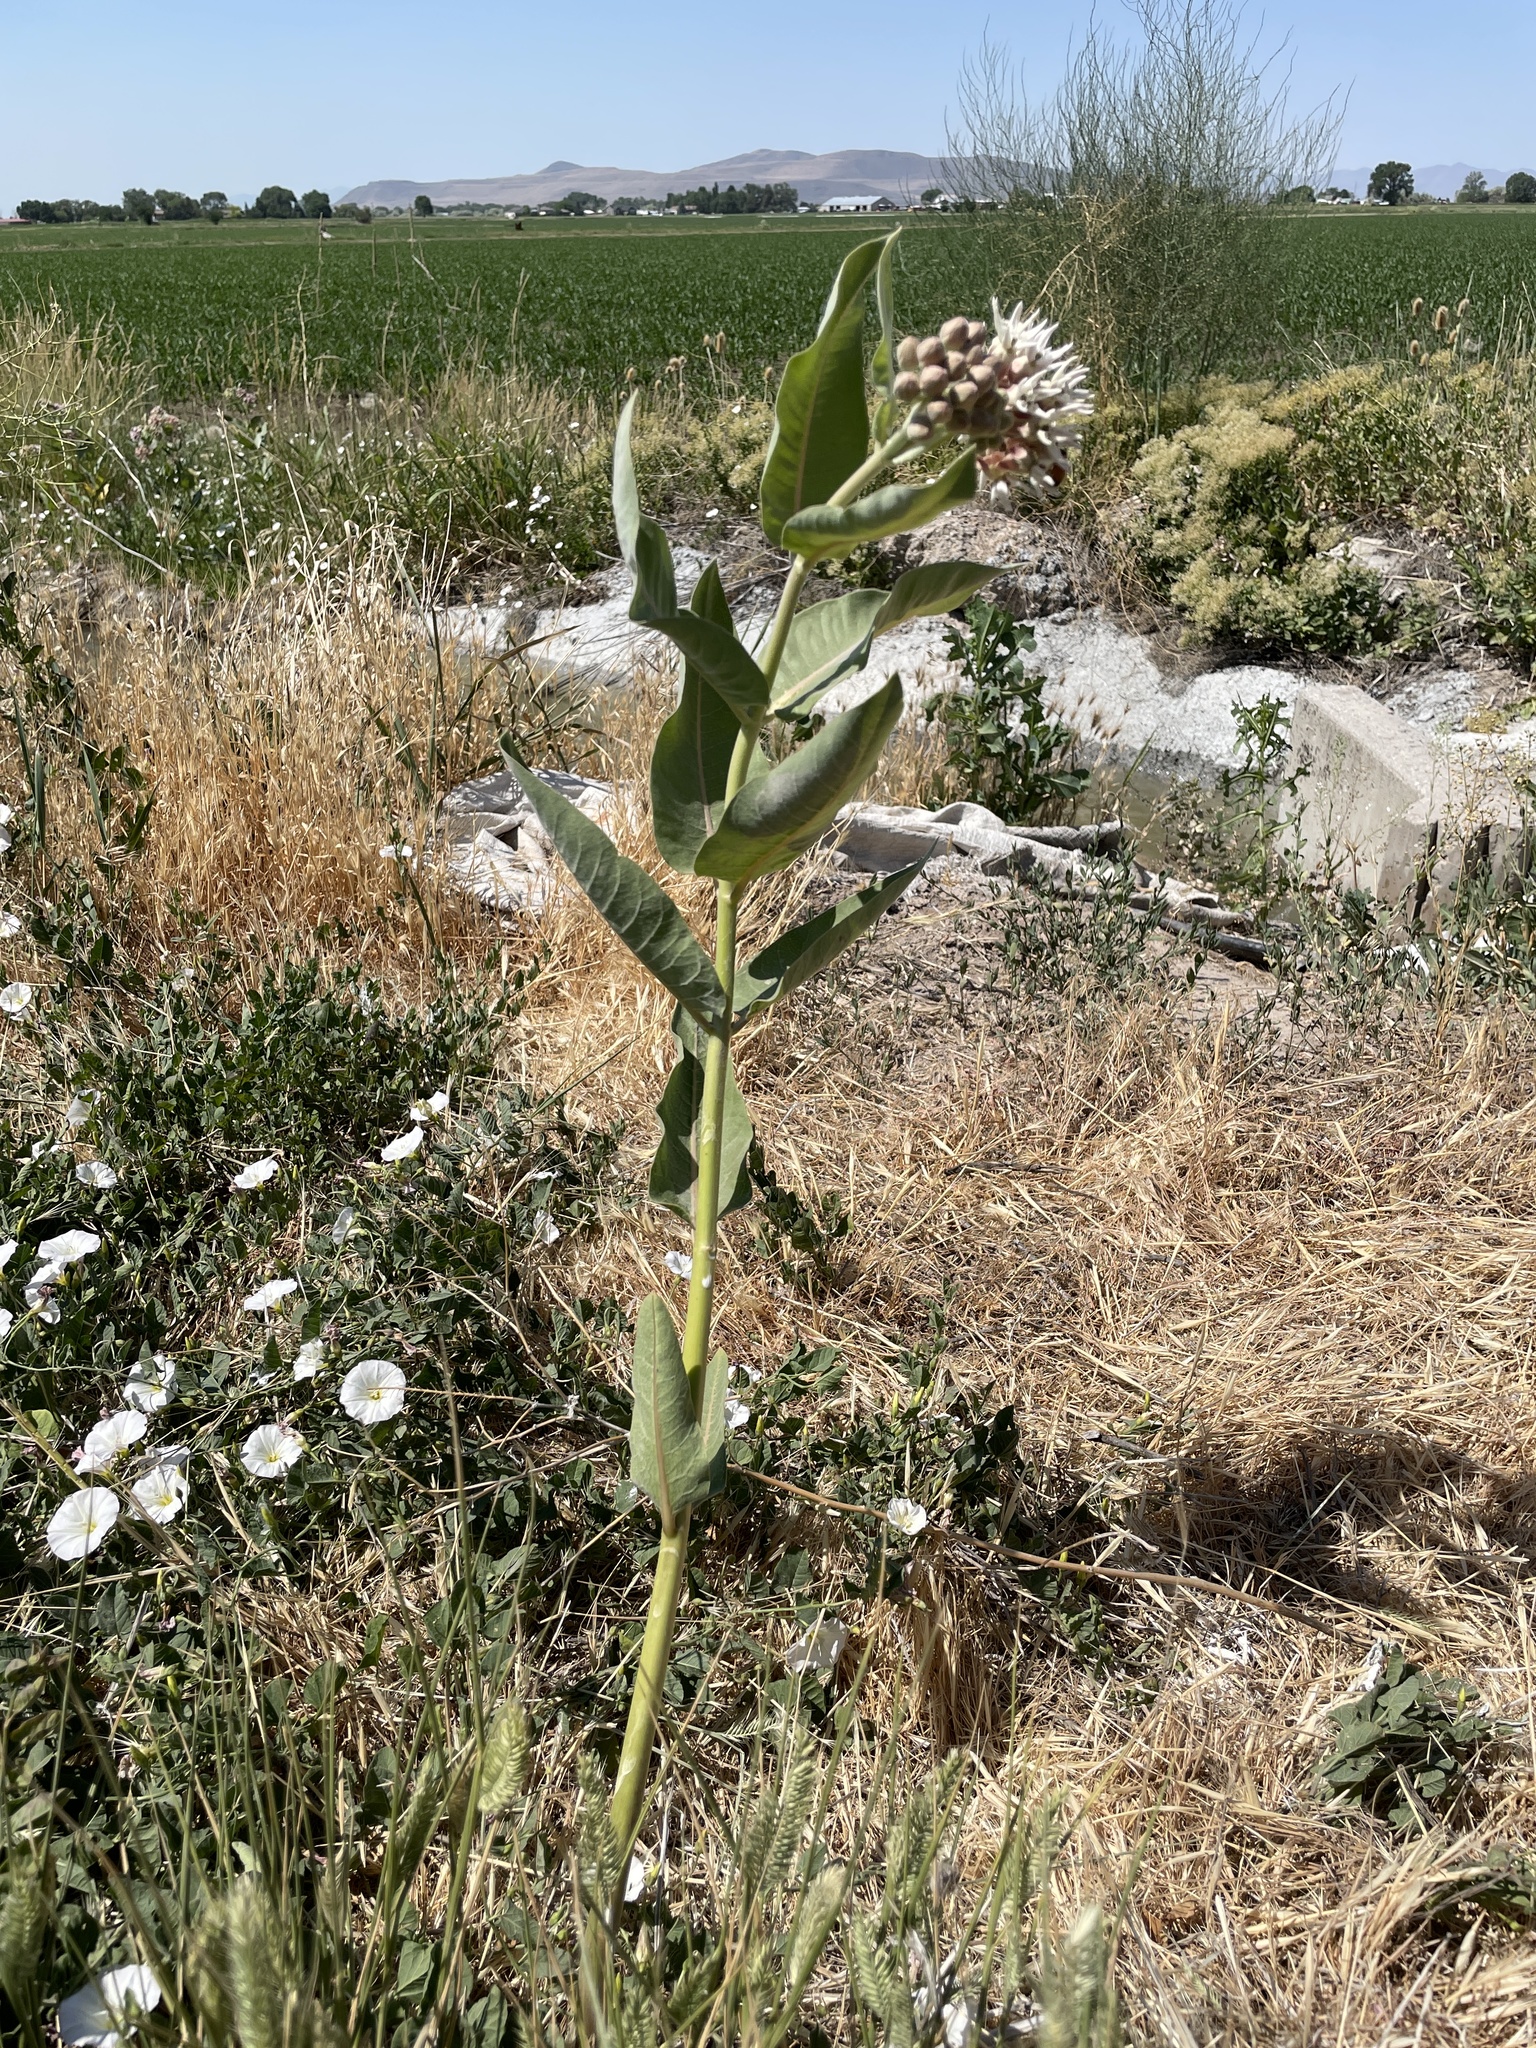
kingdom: Plantae
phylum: Tracheophyta
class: Magnoliopsida
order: Gentianales
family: Apocynaceae
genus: Asclepias
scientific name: Asclepias speciosa
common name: Showy milkweed
